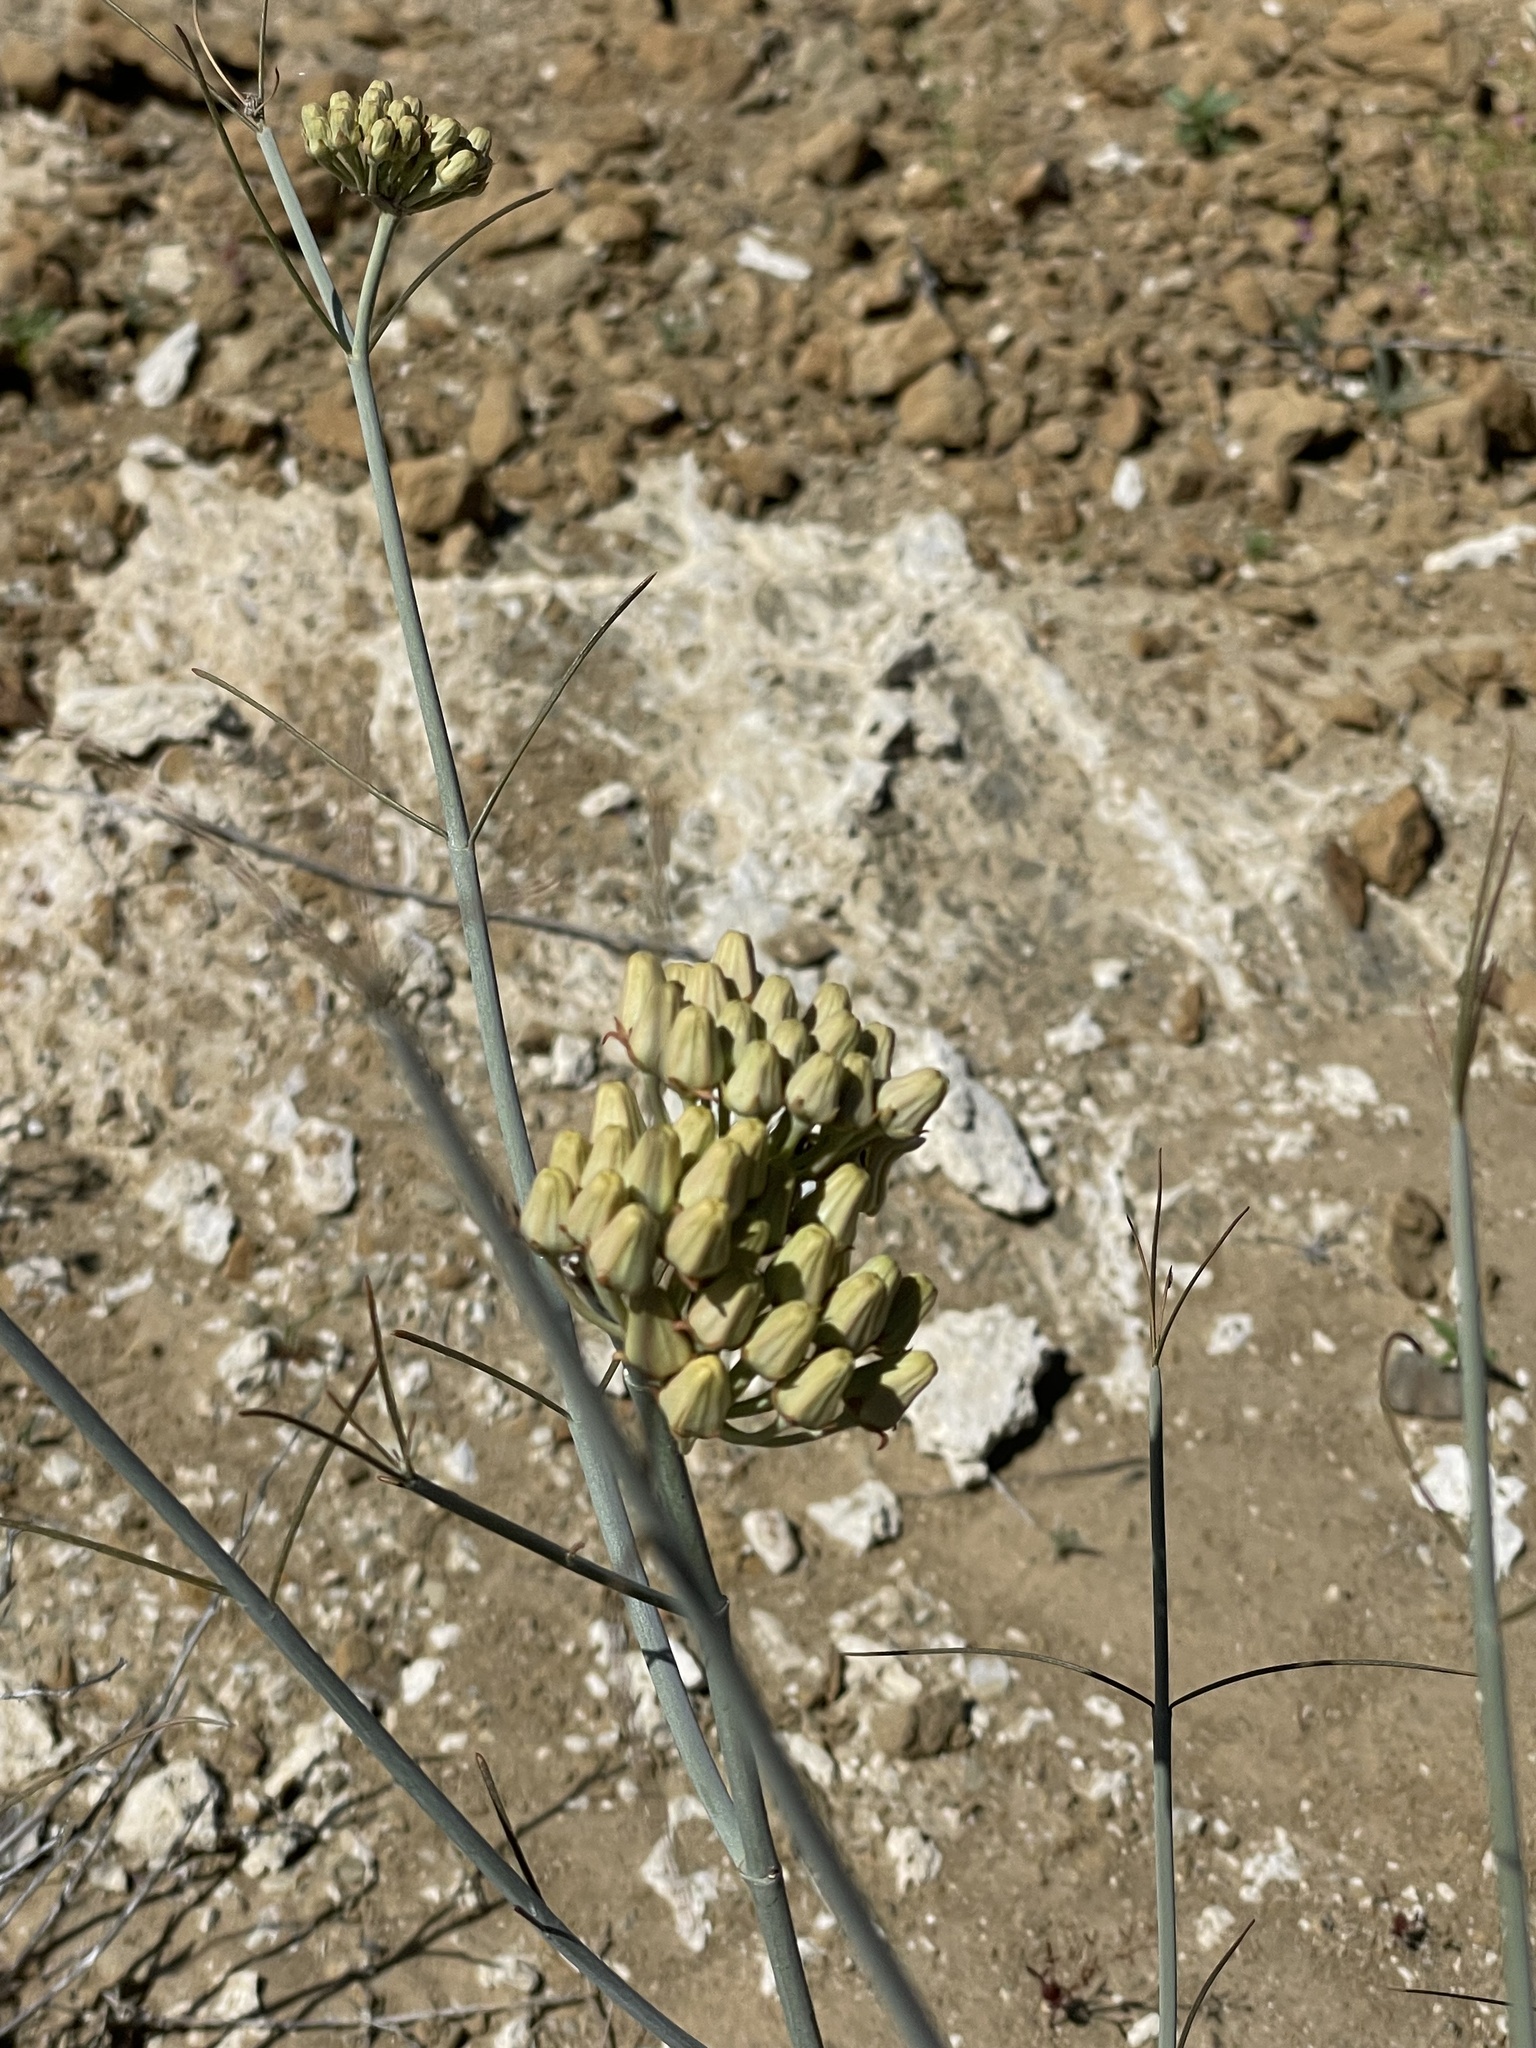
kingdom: Plantae
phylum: Tracheophyta
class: Magnoliopsida
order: Gentianales
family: Apocynaceae
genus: Asclepias
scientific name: Asclepias subulata
